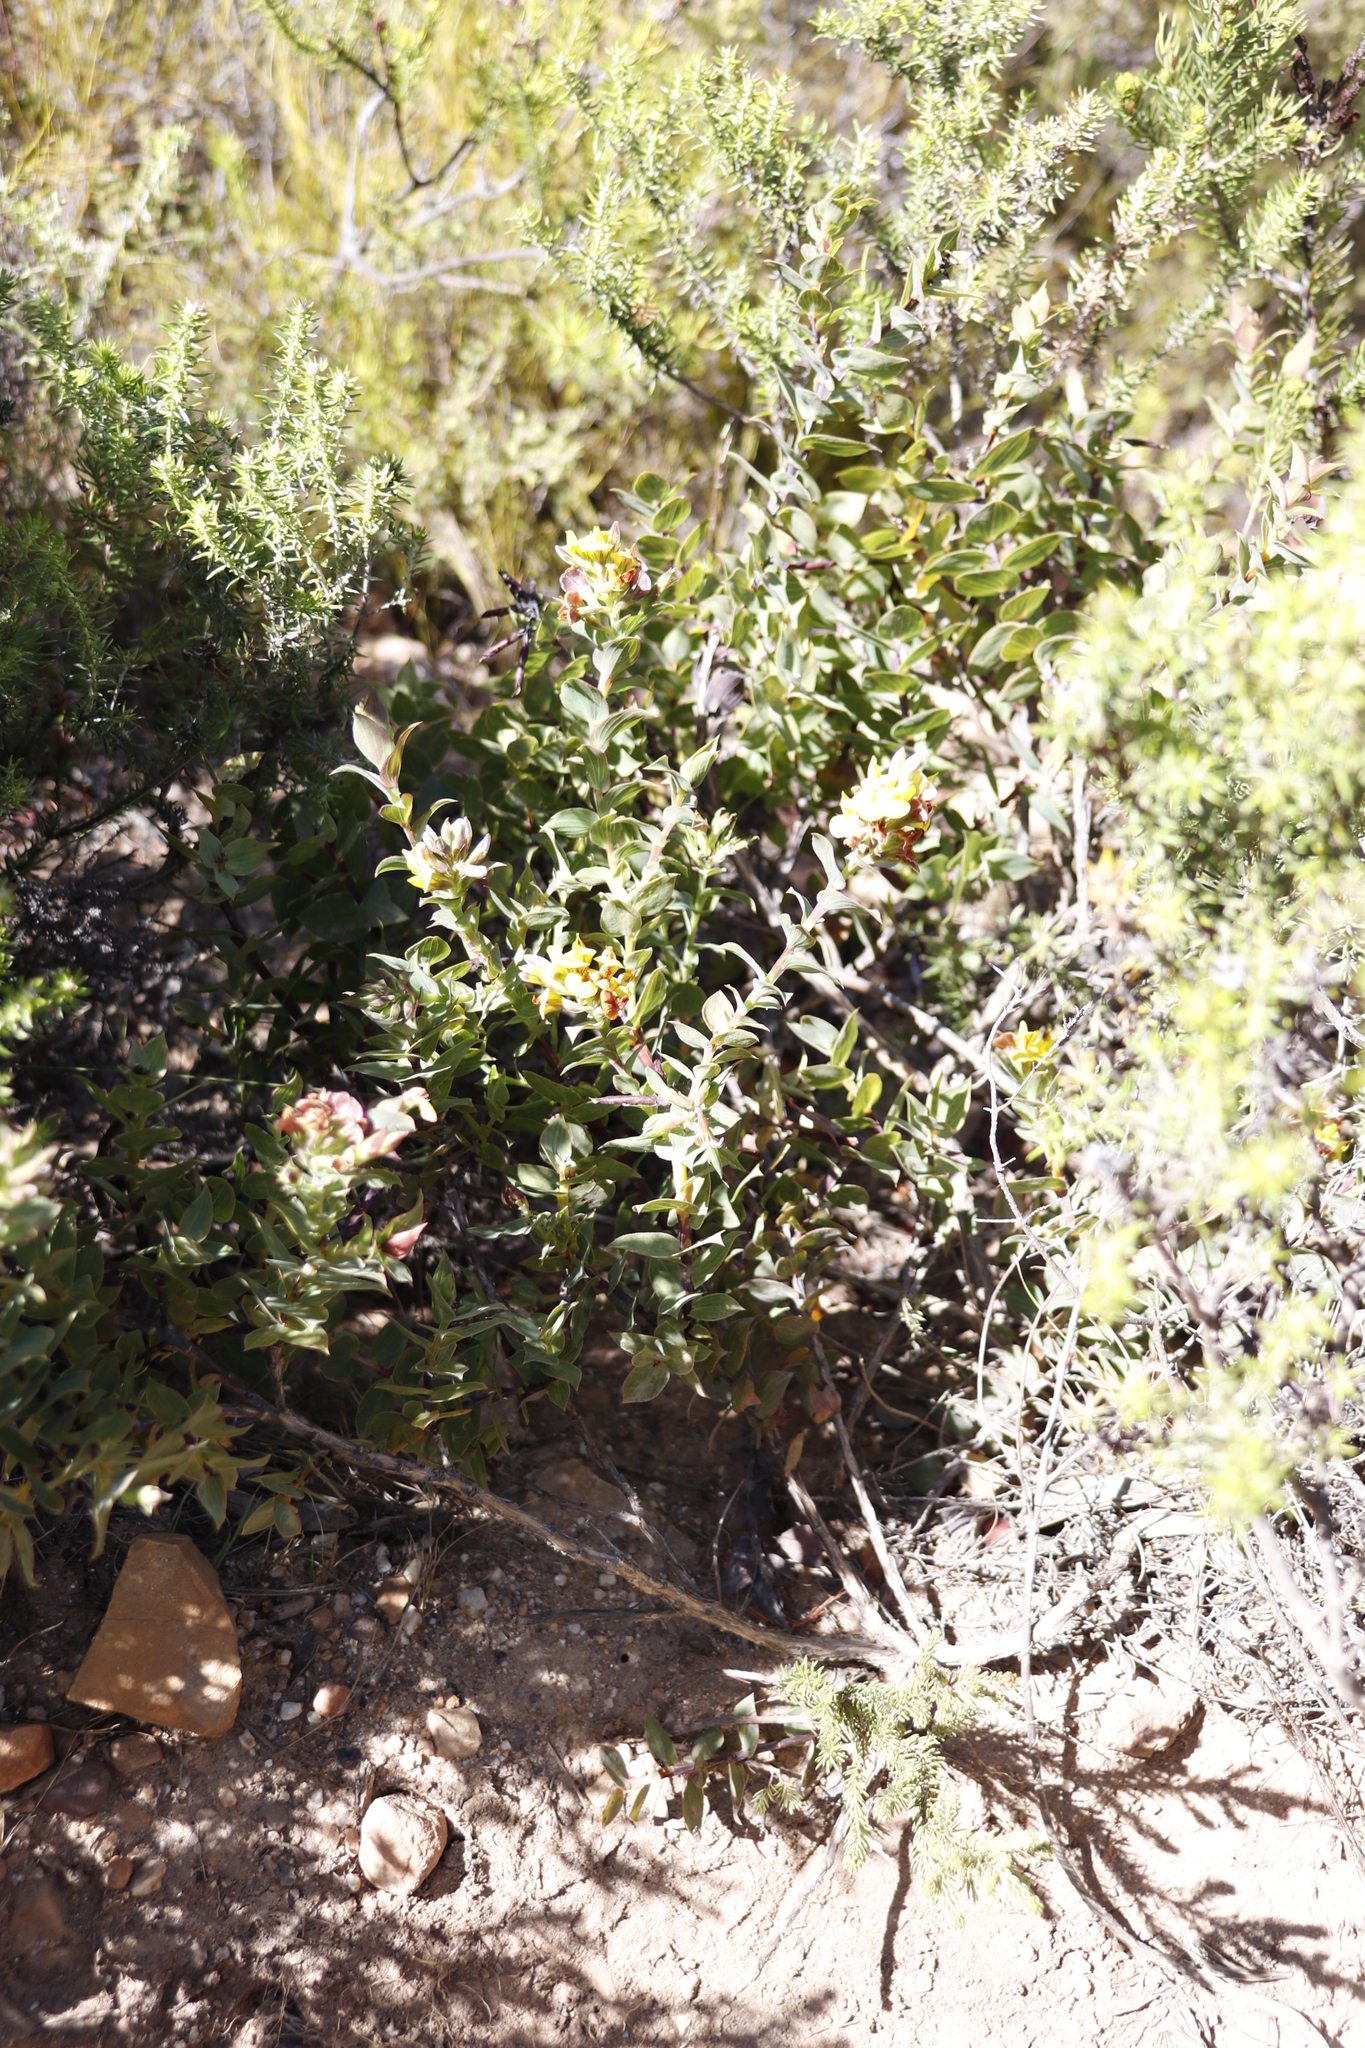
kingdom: Plantae
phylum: Tracheophyta
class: Magnoliopsida
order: Fabales
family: Fabaceae
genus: Aspalathus
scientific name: Aspalathus crenata
